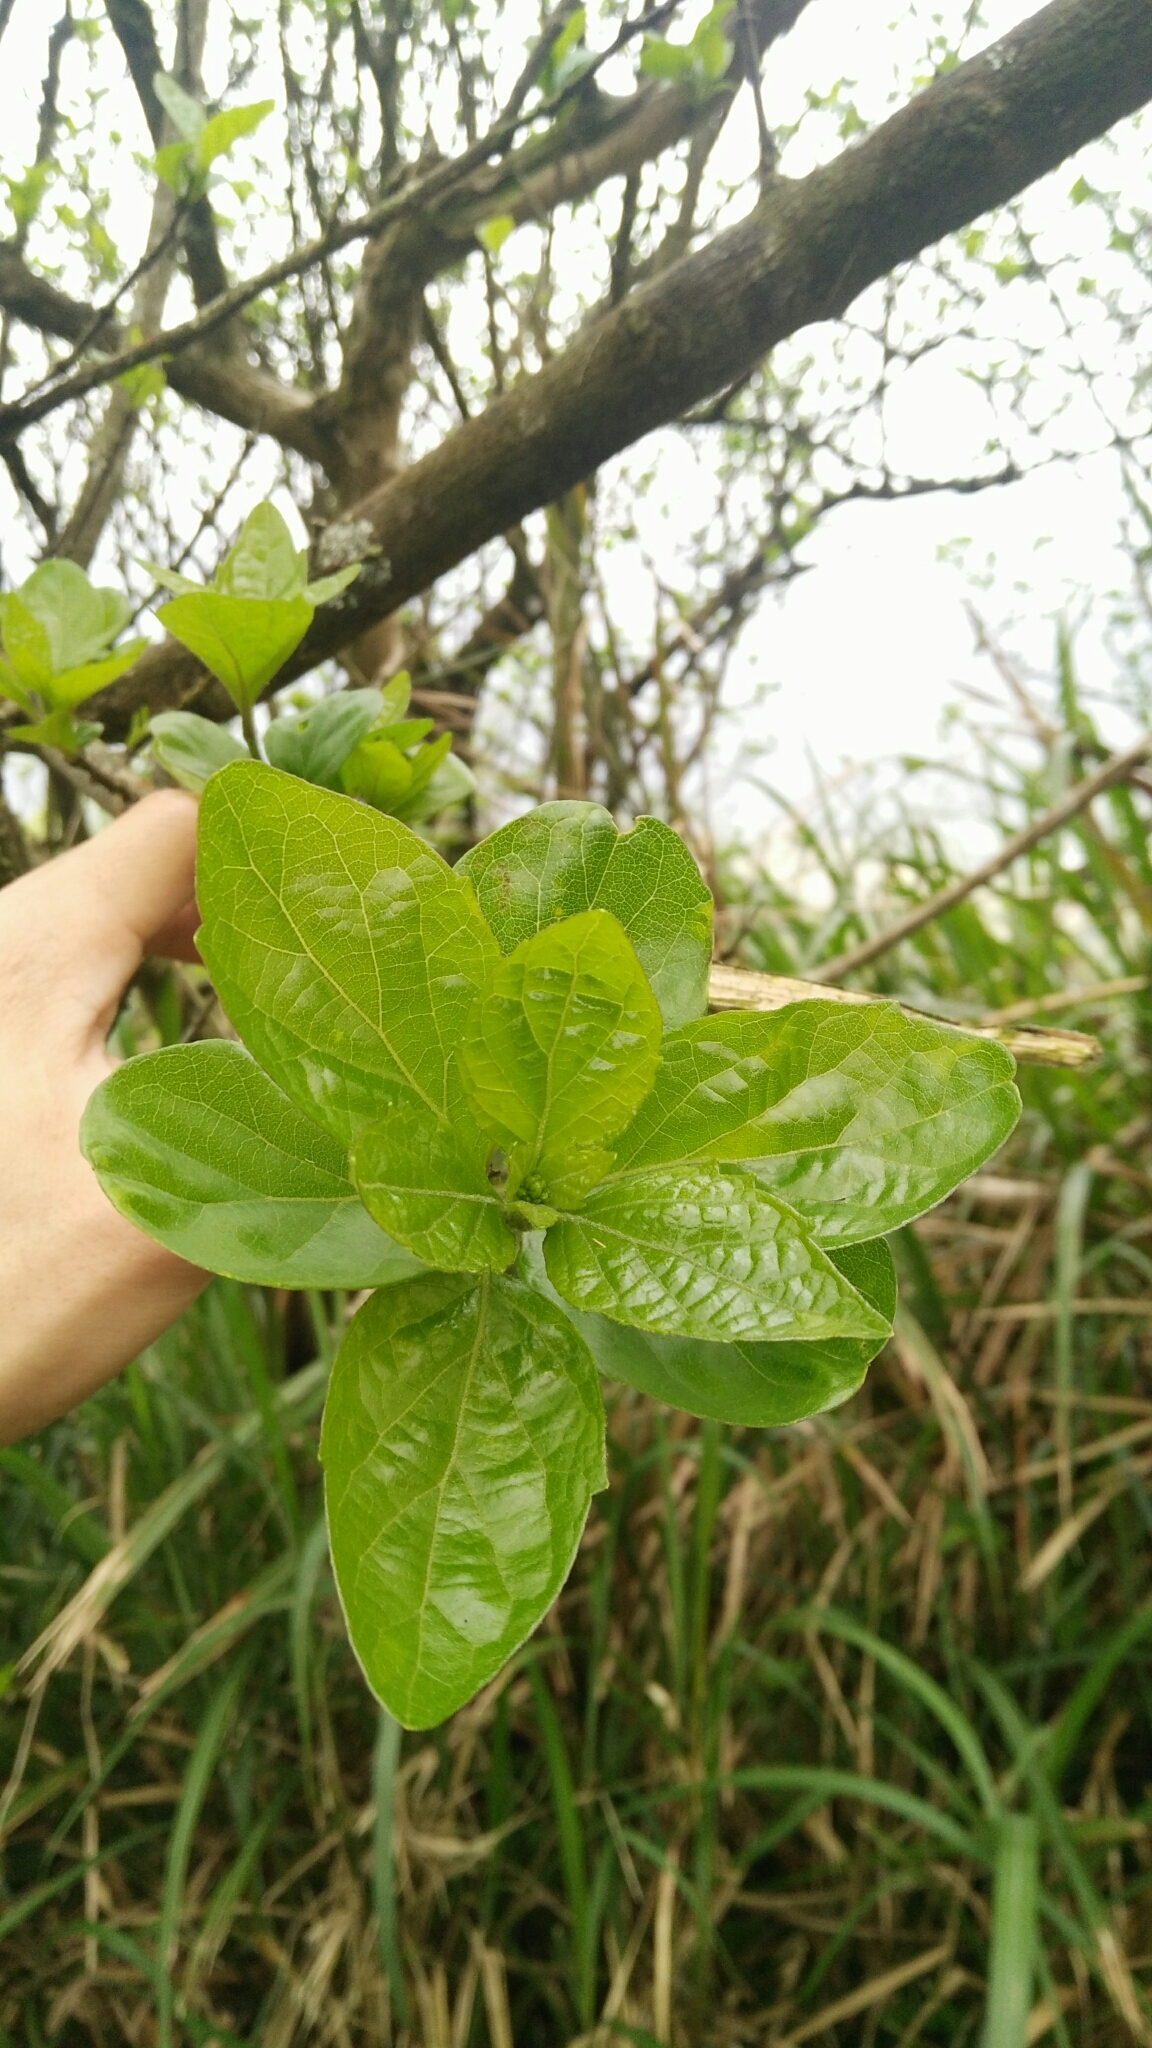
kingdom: Plantae
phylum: Tracheophyta
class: Magnoliopsida
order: Lamiales
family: Lamiaceae
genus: Premna
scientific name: Premna microphylla
